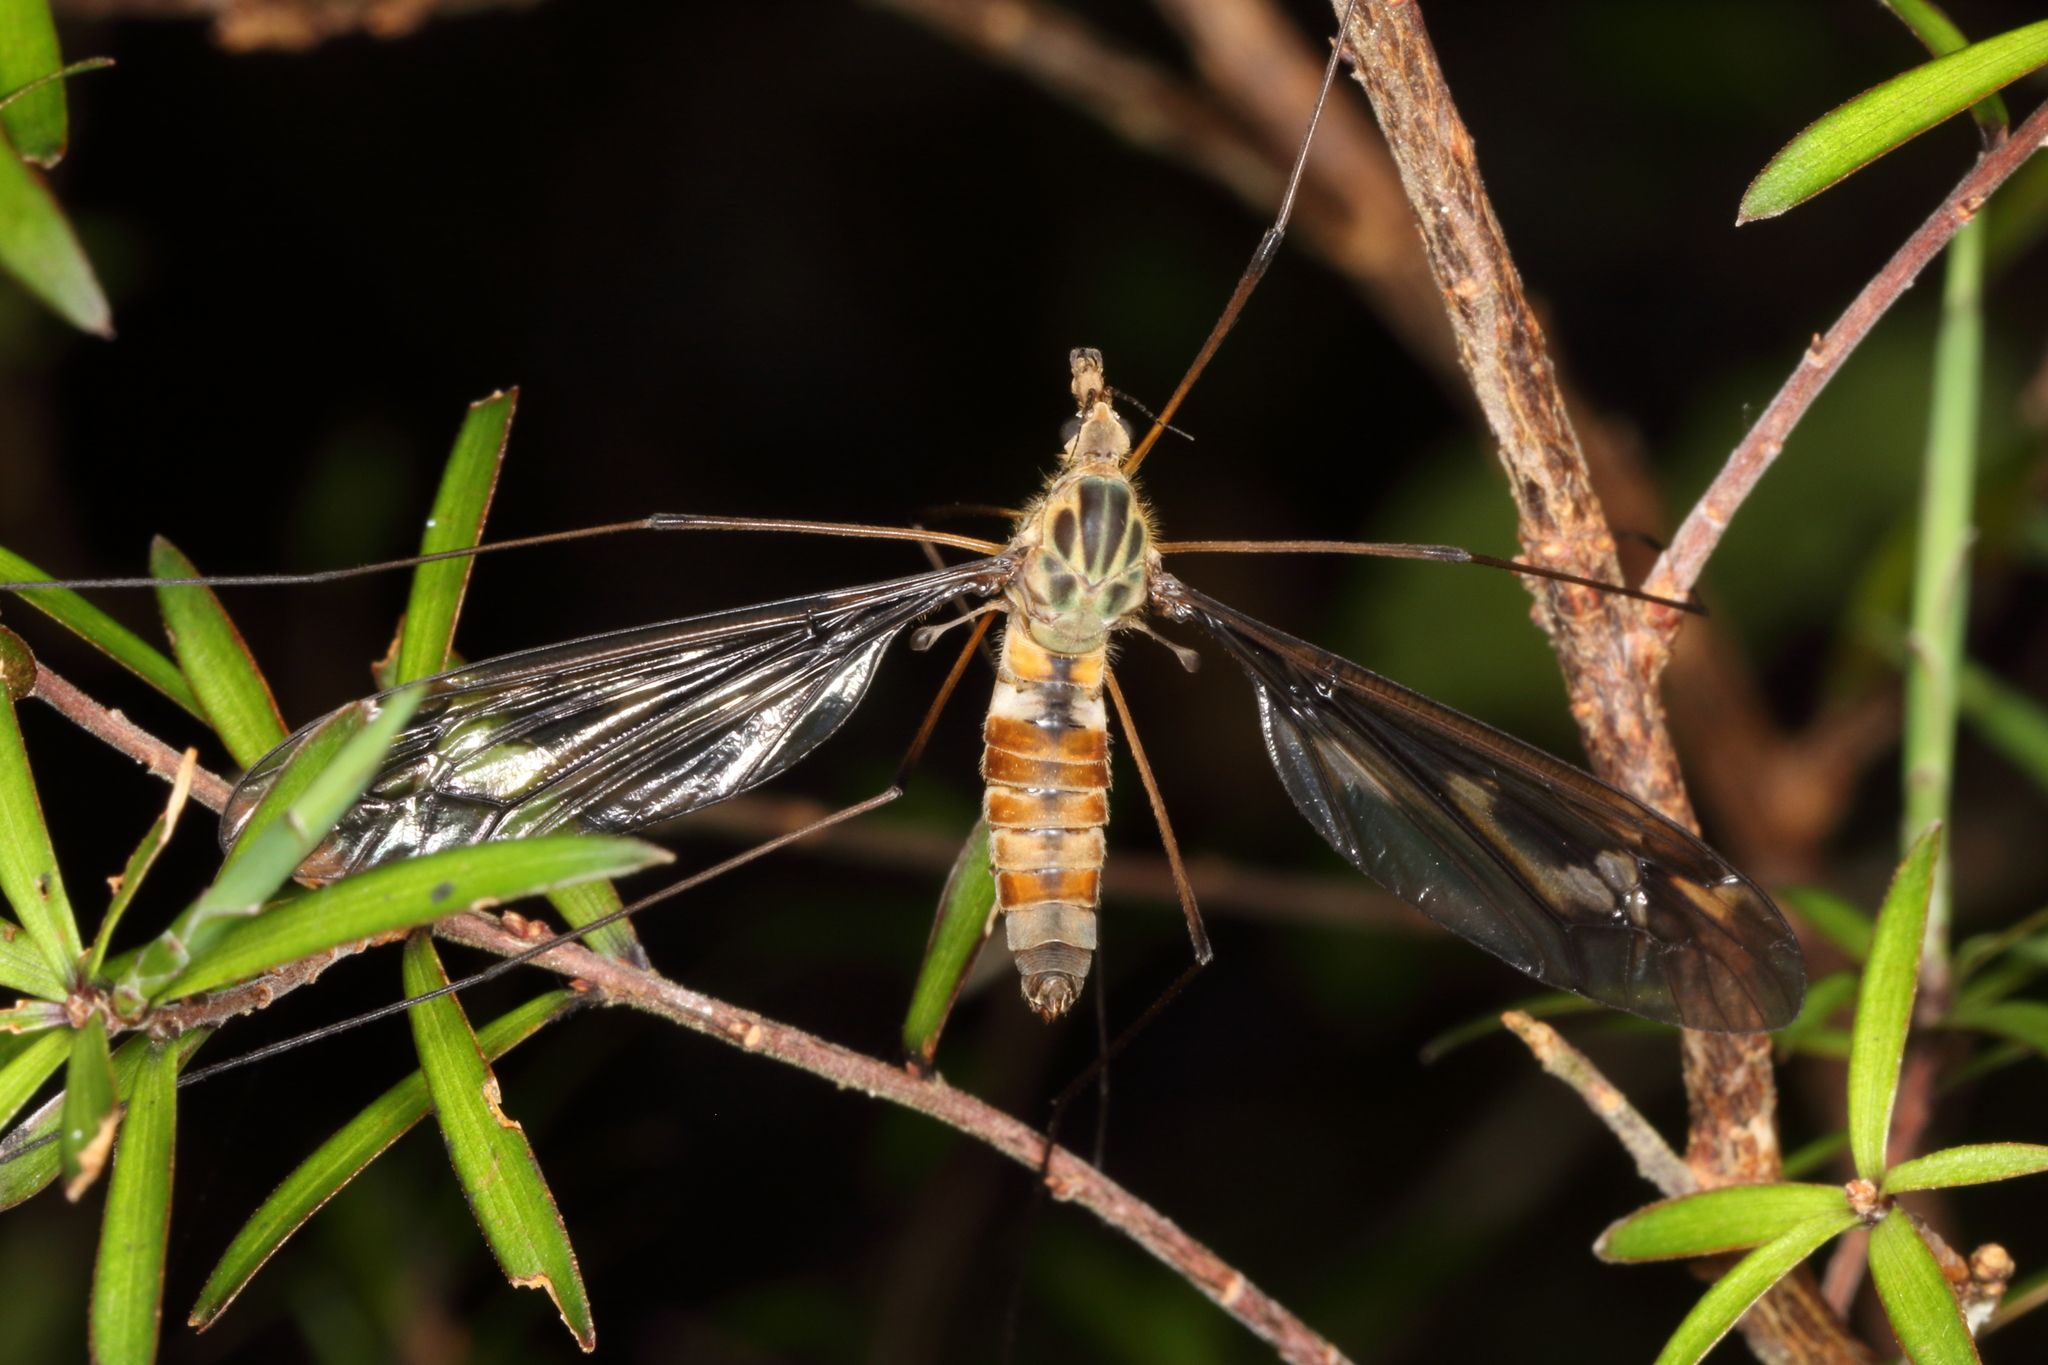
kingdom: Animalia
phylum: Arthropoda
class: Insecta
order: Diptera
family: Tipulidae
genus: Leptotarsus
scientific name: Leptotarsus lunatus
